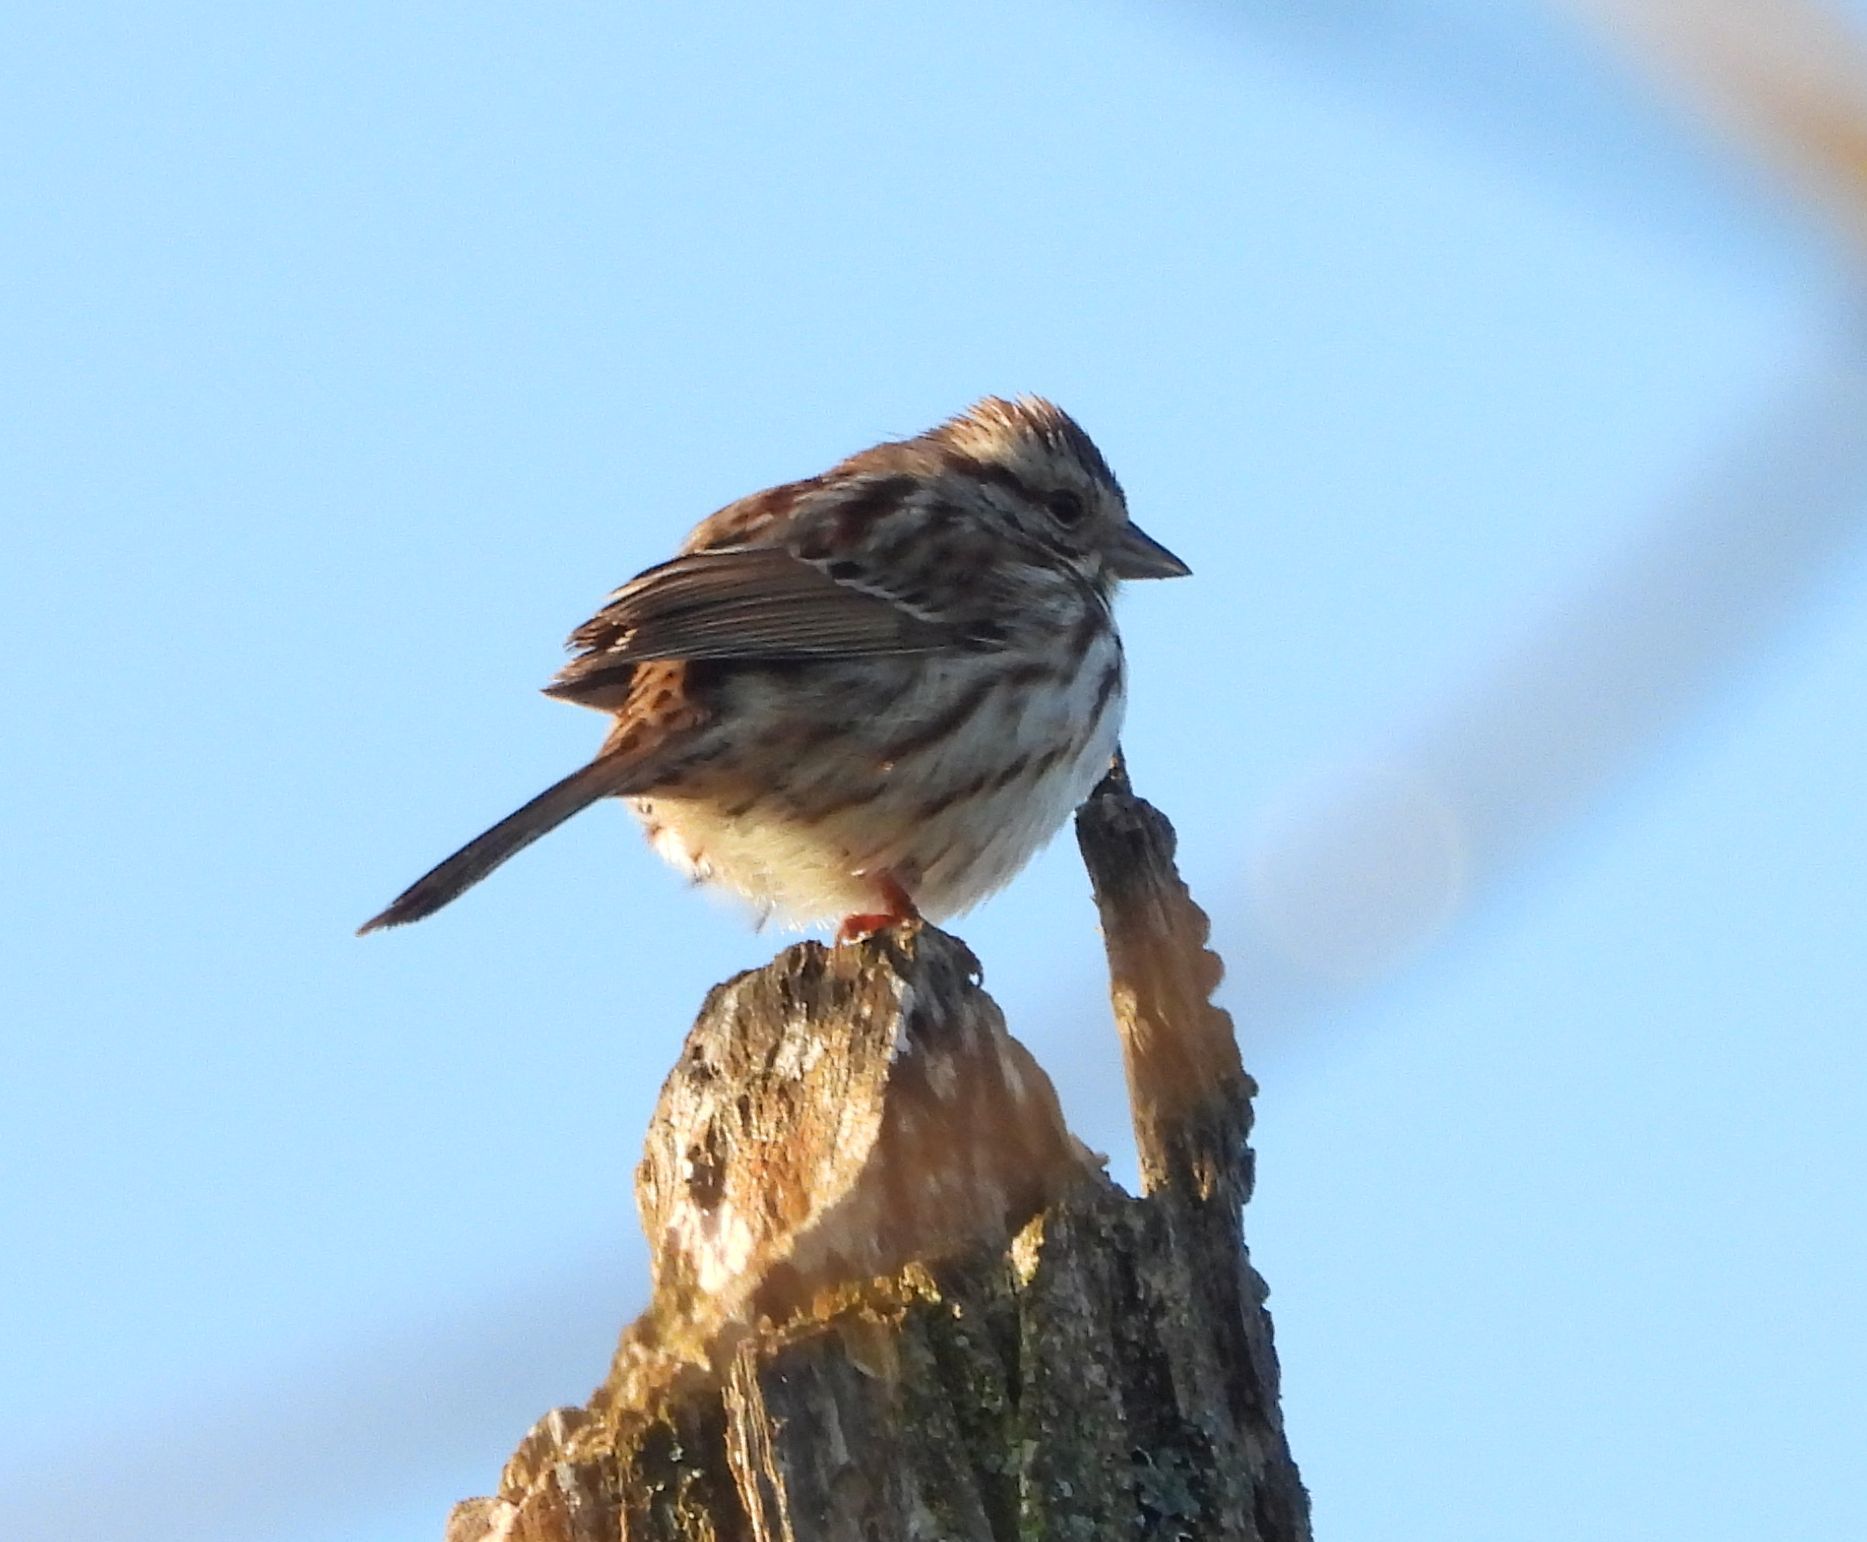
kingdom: Animalia
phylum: Chordata
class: Aves
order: Passeriformes
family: Passerellidae
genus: Melospiza
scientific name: Melospiza melodia
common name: Song sparrow
